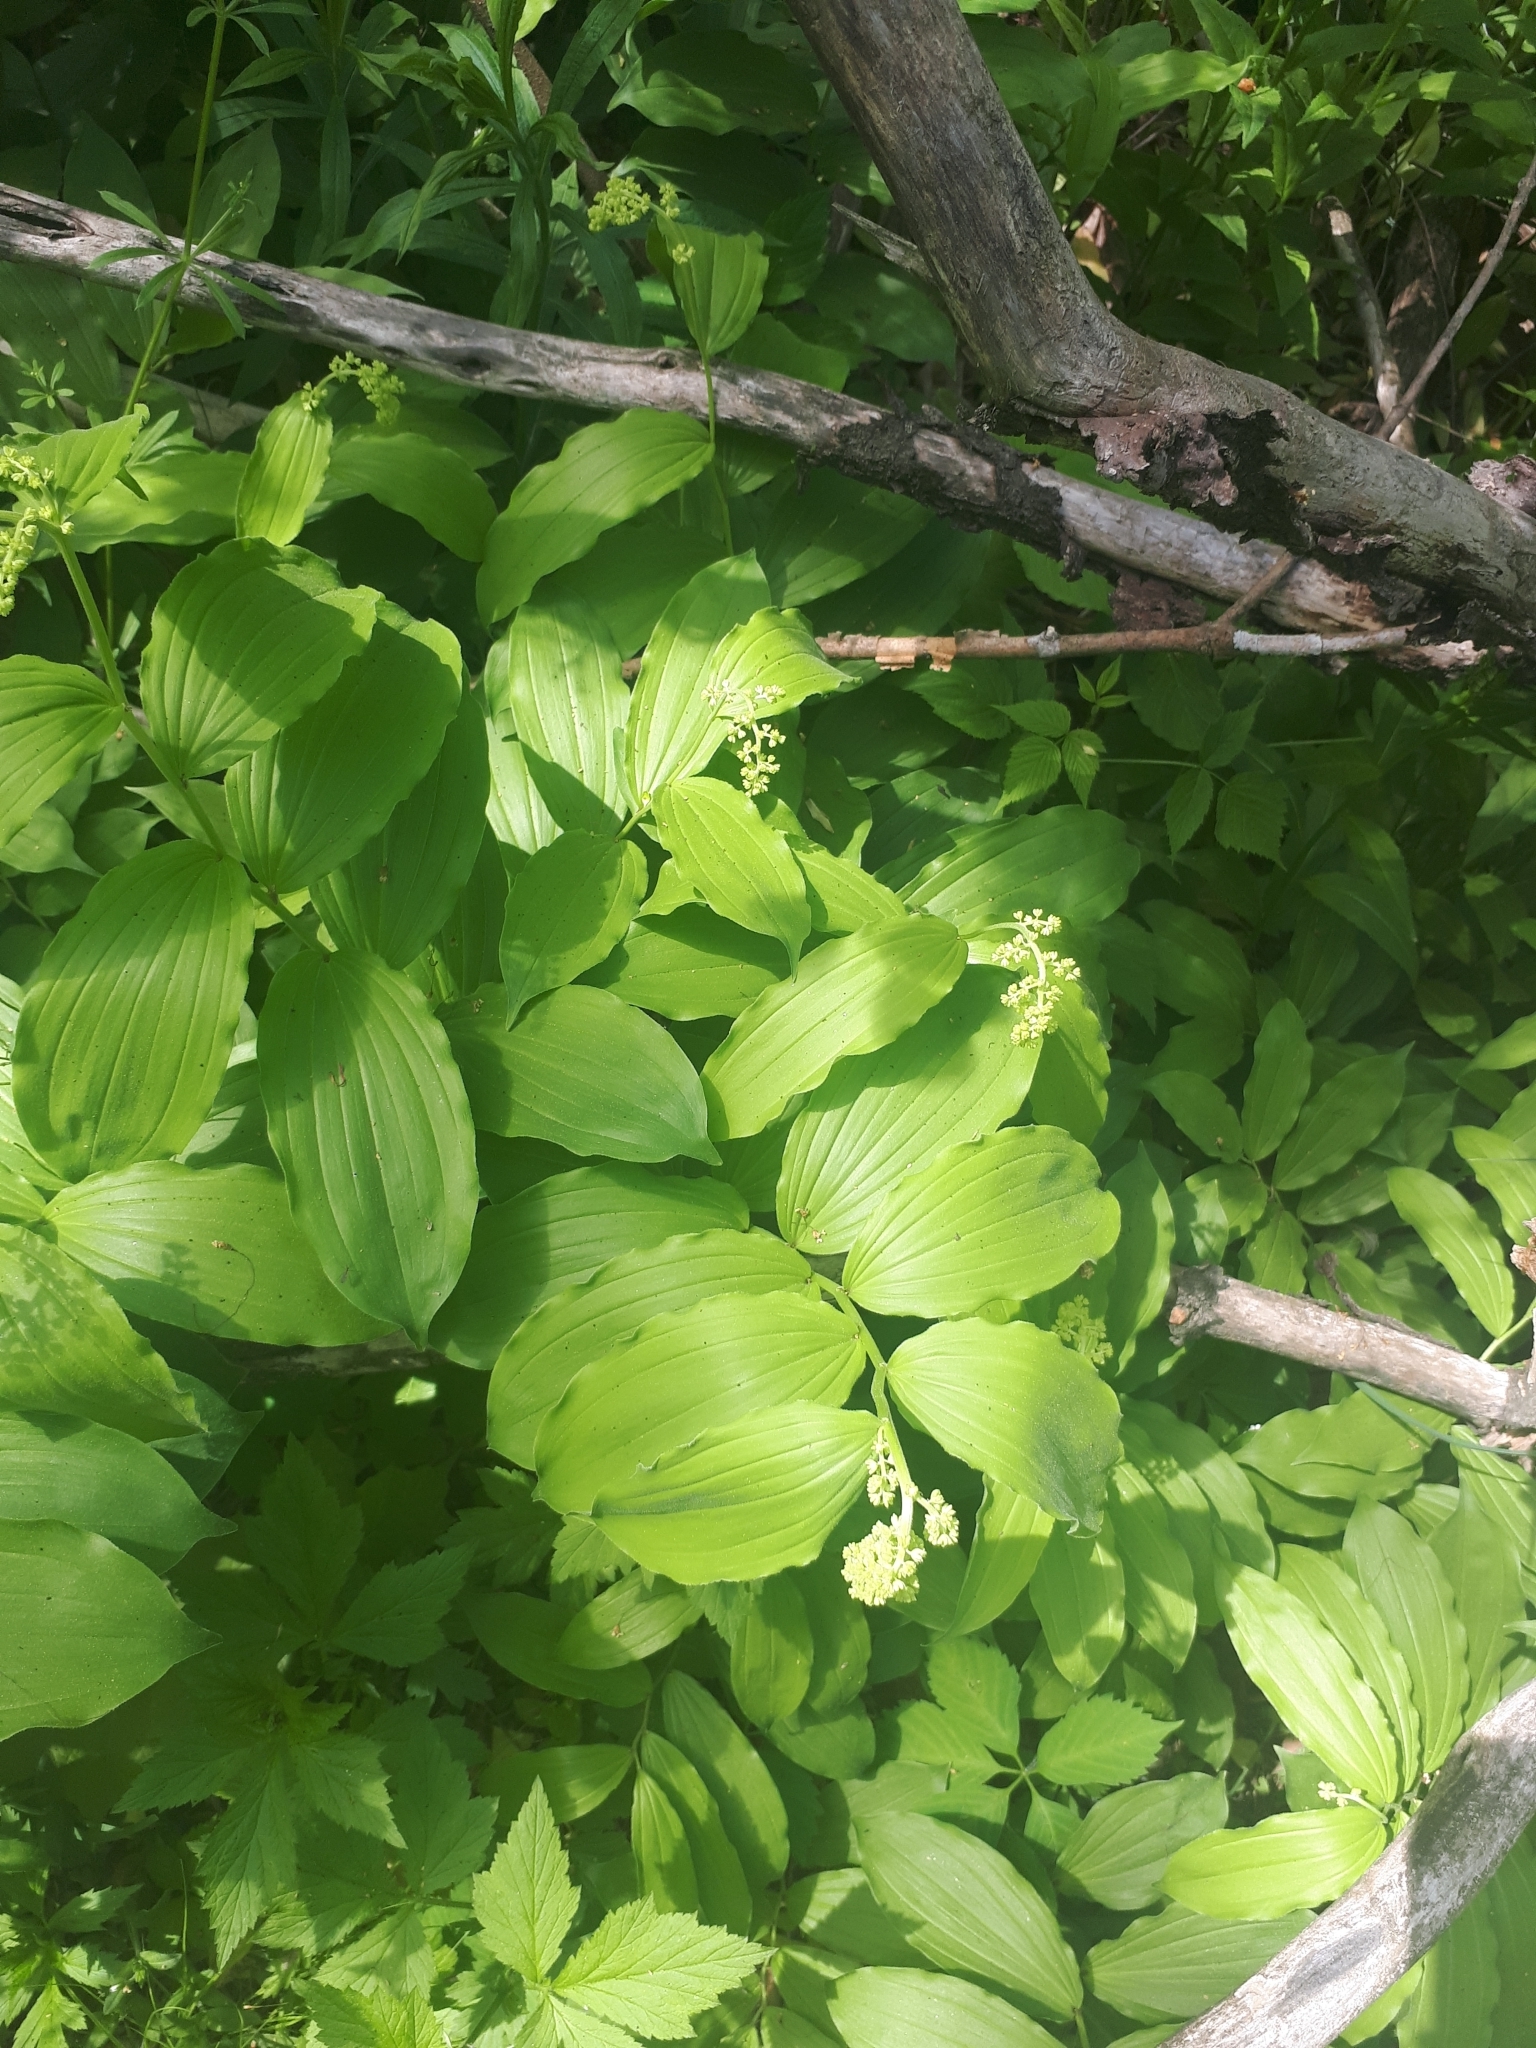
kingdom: Plantae
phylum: Tracheophyta
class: Liliopsida
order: Asparagales
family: Asparagaceae
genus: Maianthemum
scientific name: Maianthemum racemosum
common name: False spikenard
